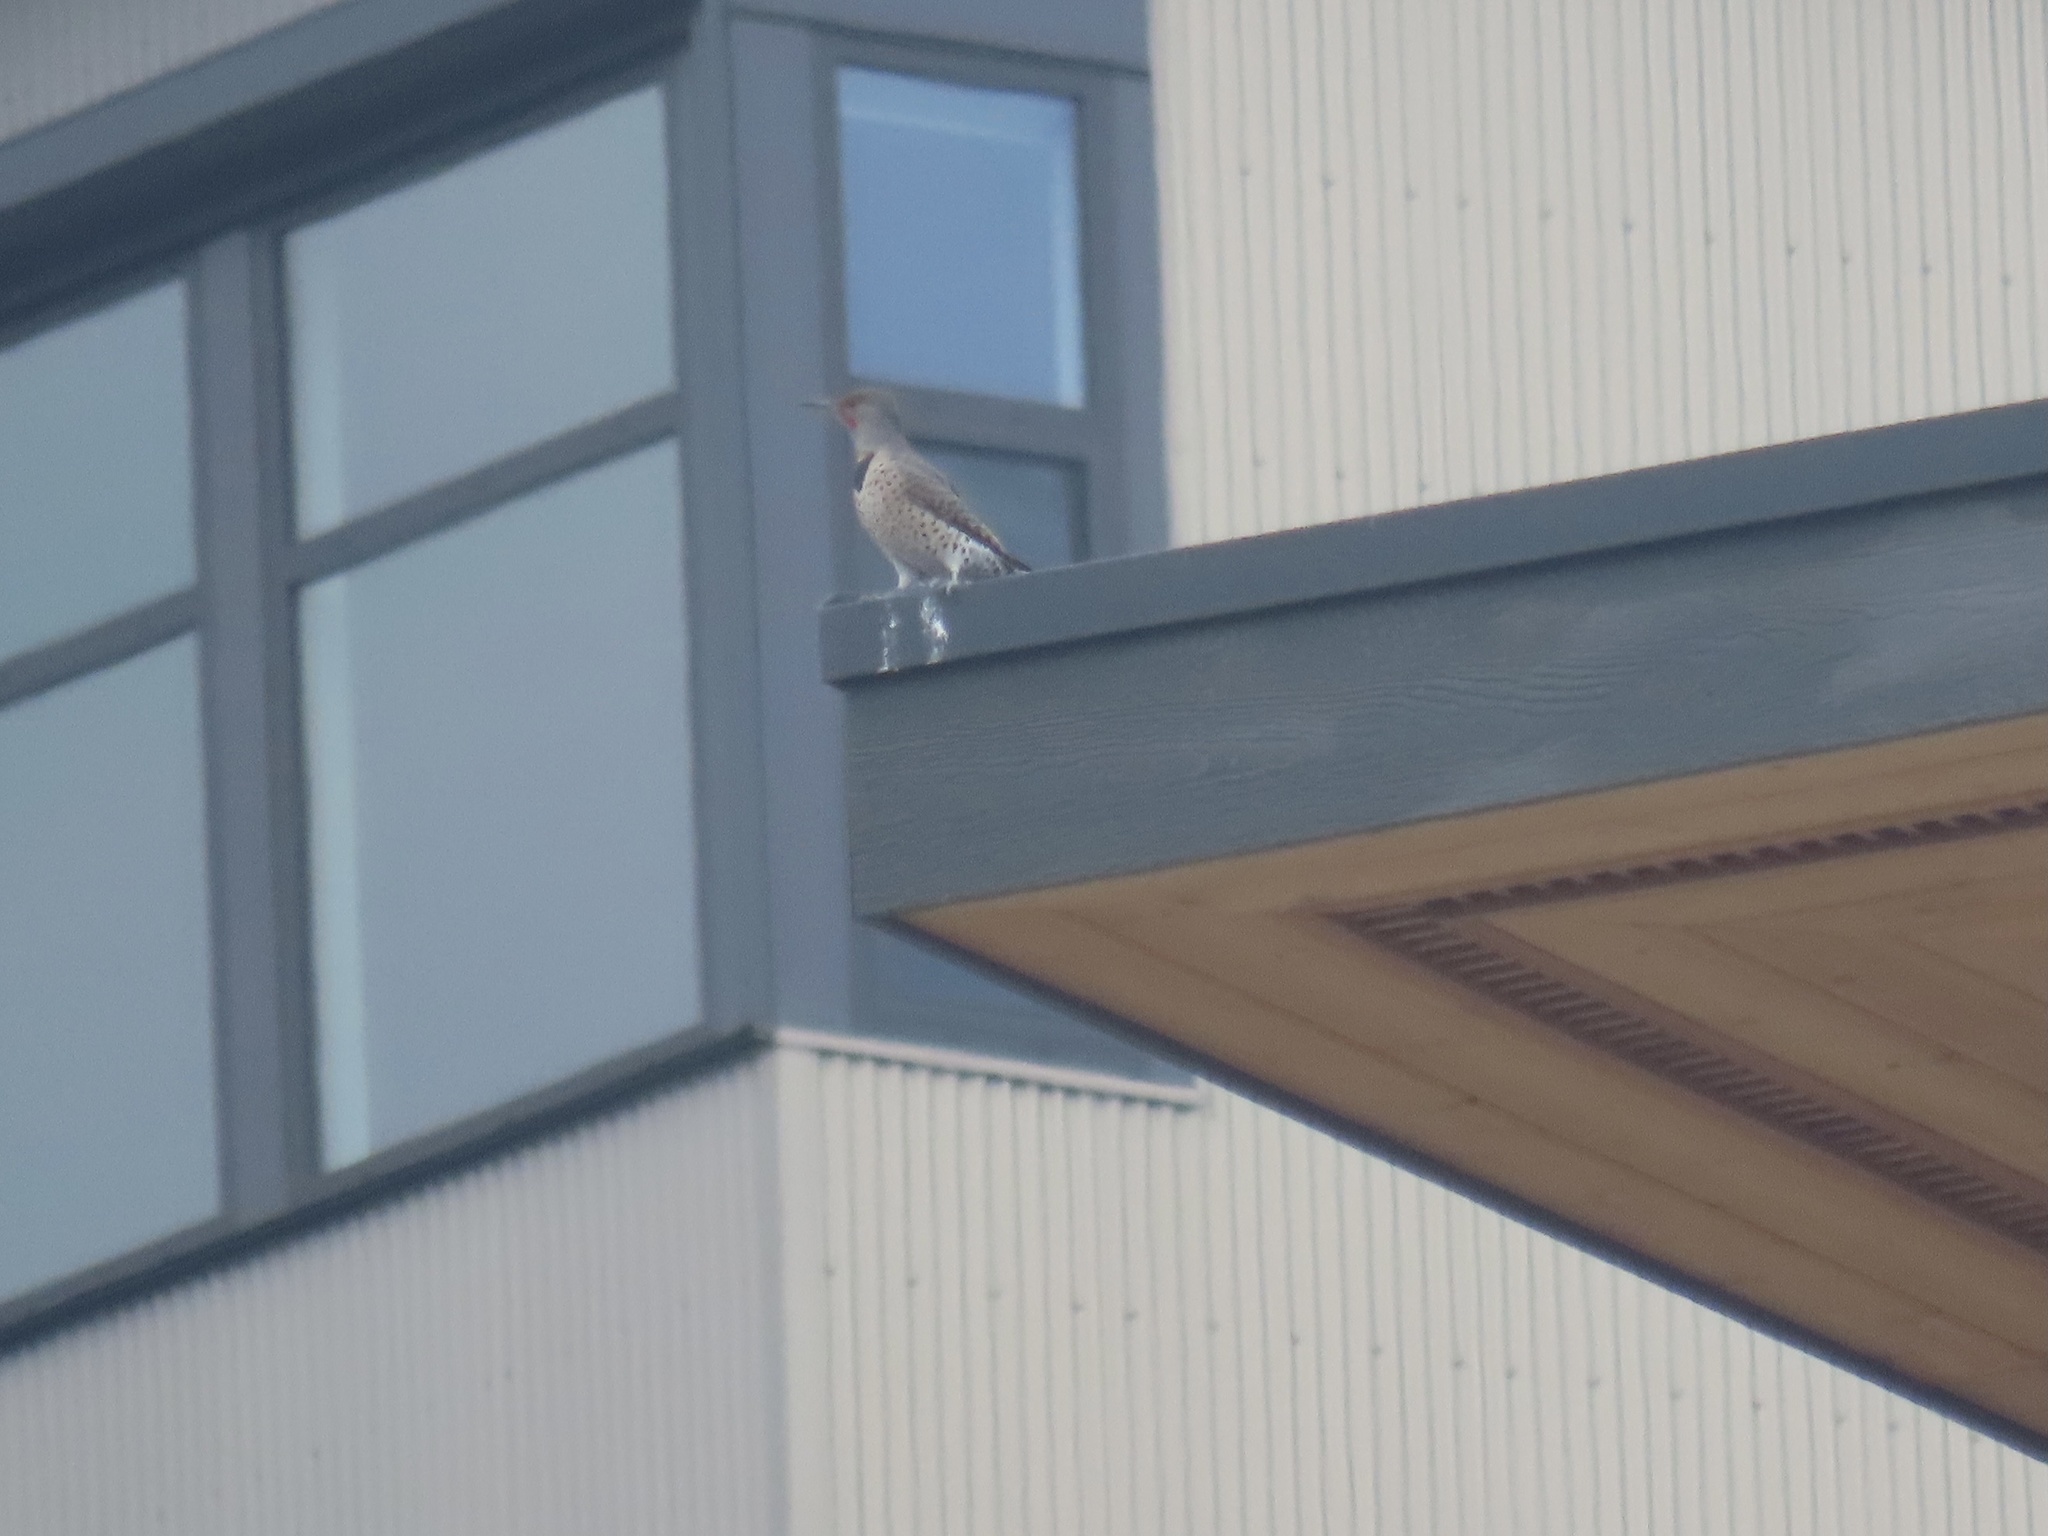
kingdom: Animalia
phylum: Chordata
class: Aves
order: Piciformes
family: Picidae
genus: Colaptes
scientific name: Colaptes auratus
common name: Northern flicker
